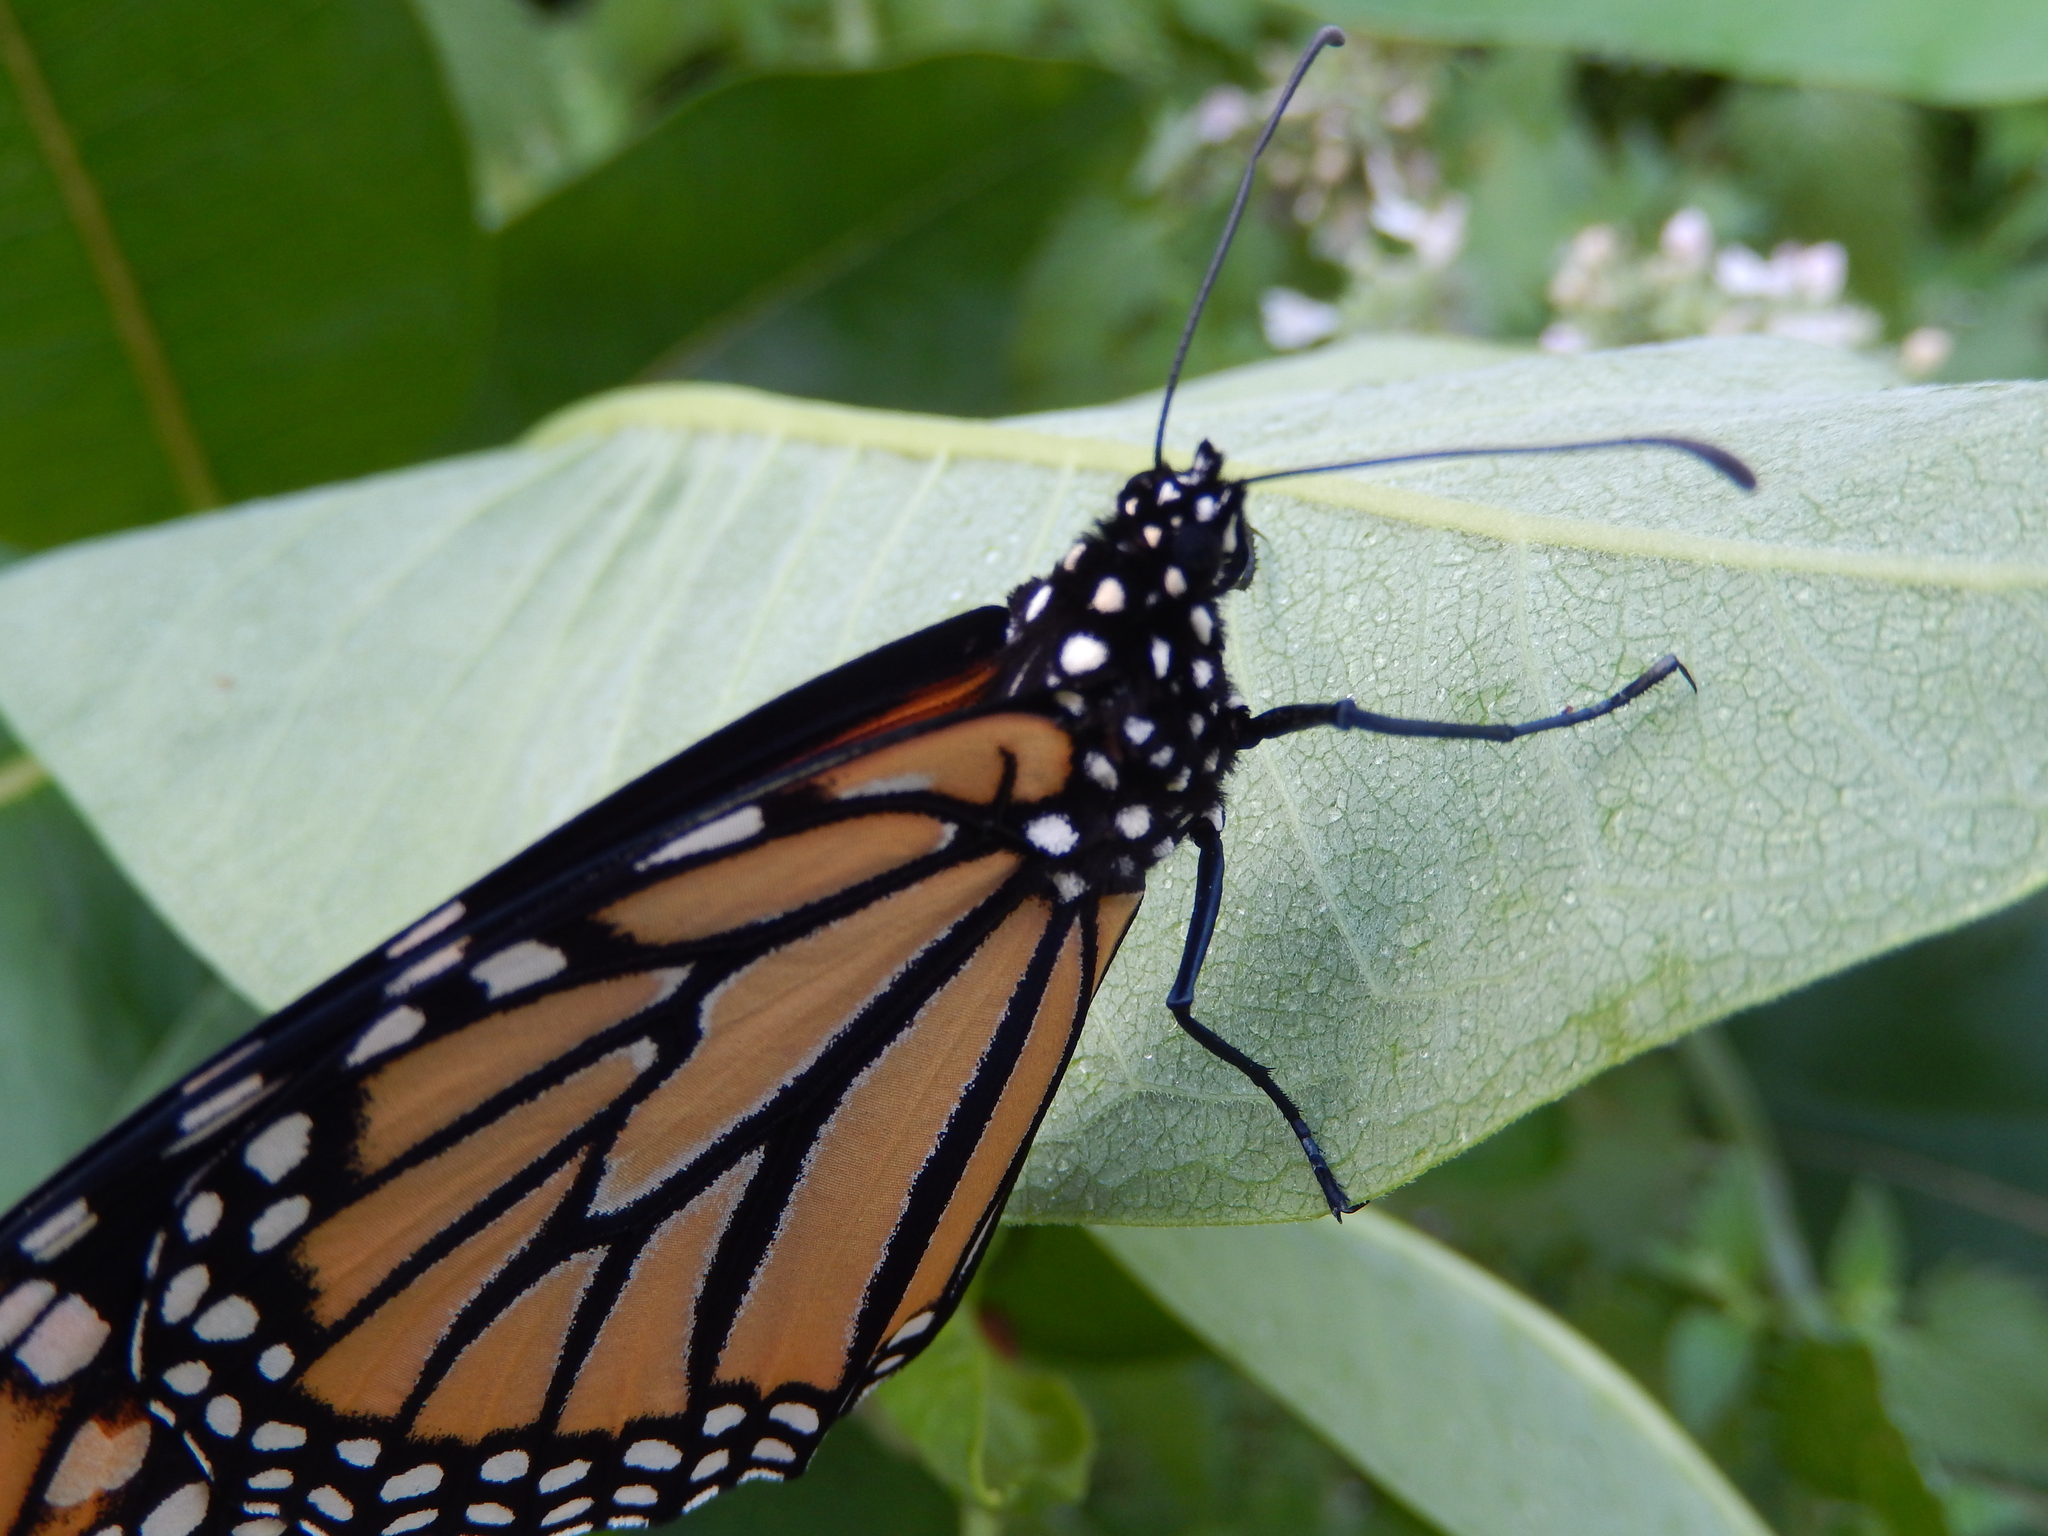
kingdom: Animalia
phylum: Arthropoda
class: Insecta
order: Lepidoptera
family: Nymphalidae
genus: Danaus
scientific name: Danaus plexippus
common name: Monarch
